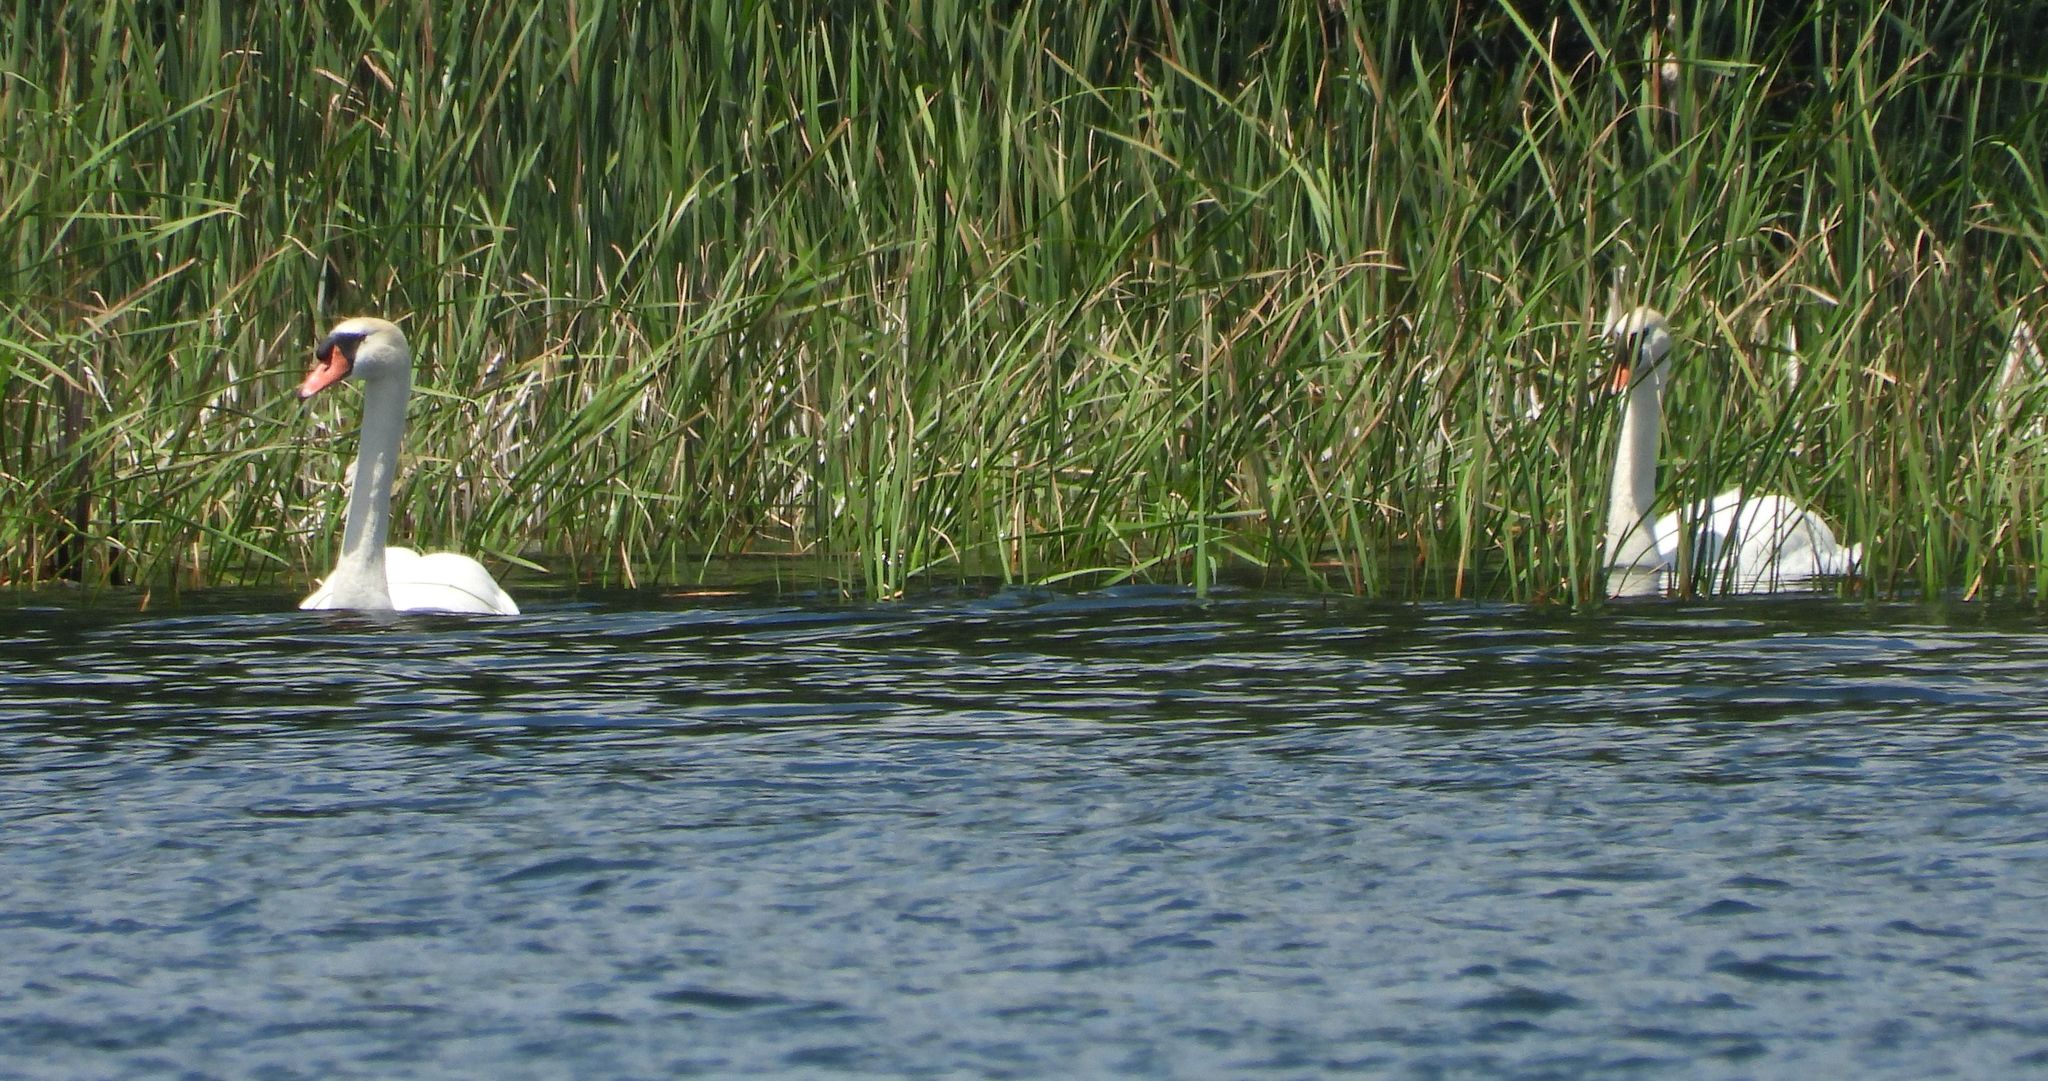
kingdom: Animalia
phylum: Chordata
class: Aves
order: Anseriformes
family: Anatidae
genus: Cygnus
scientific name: Cygnus olor
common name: Mute swan
